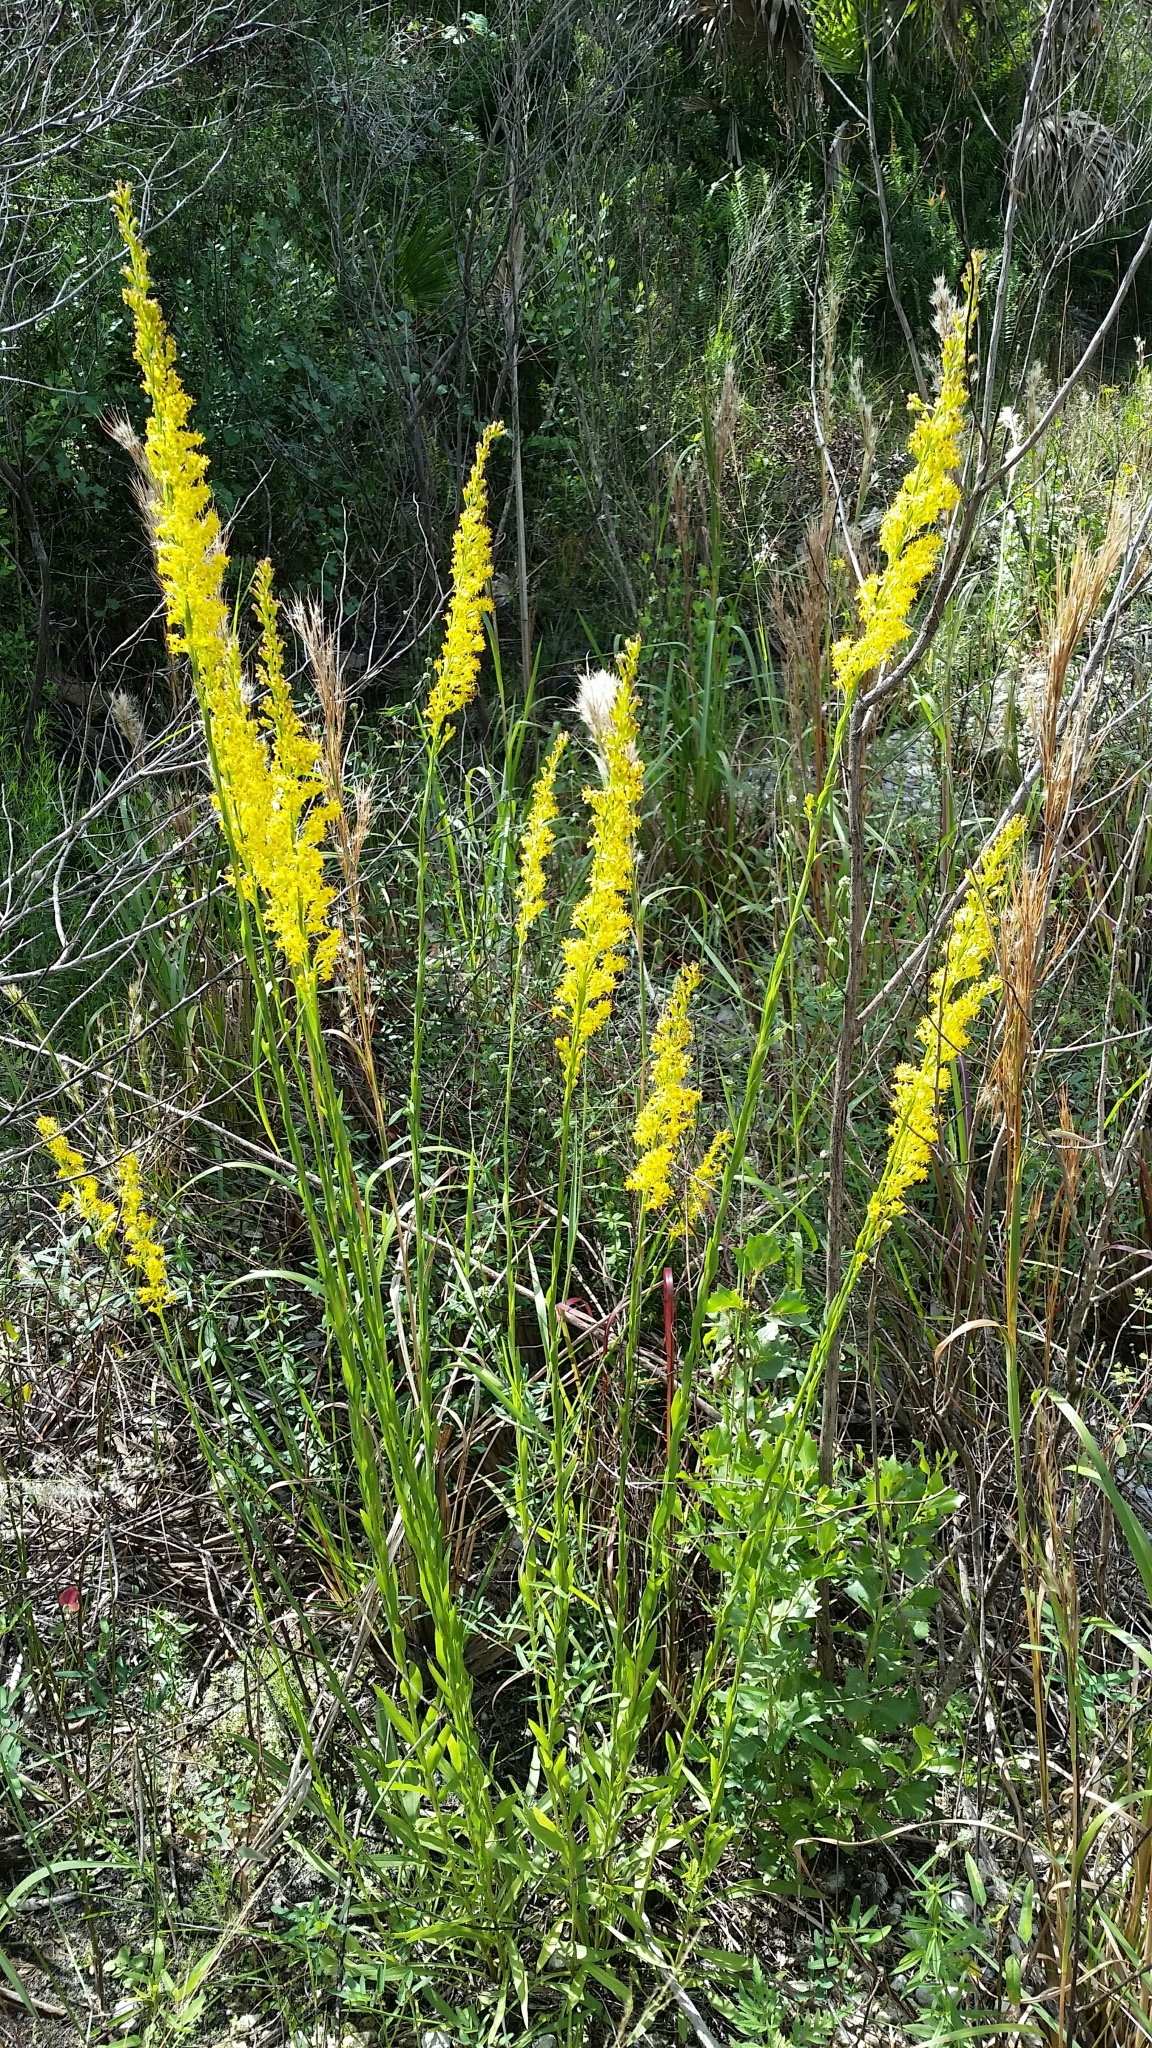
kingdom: Plantae
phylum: Tracheophyta
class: Magnoliopsida
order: Asterales
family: Asteraceae
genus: Solidago
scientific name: Solidago mexicana
